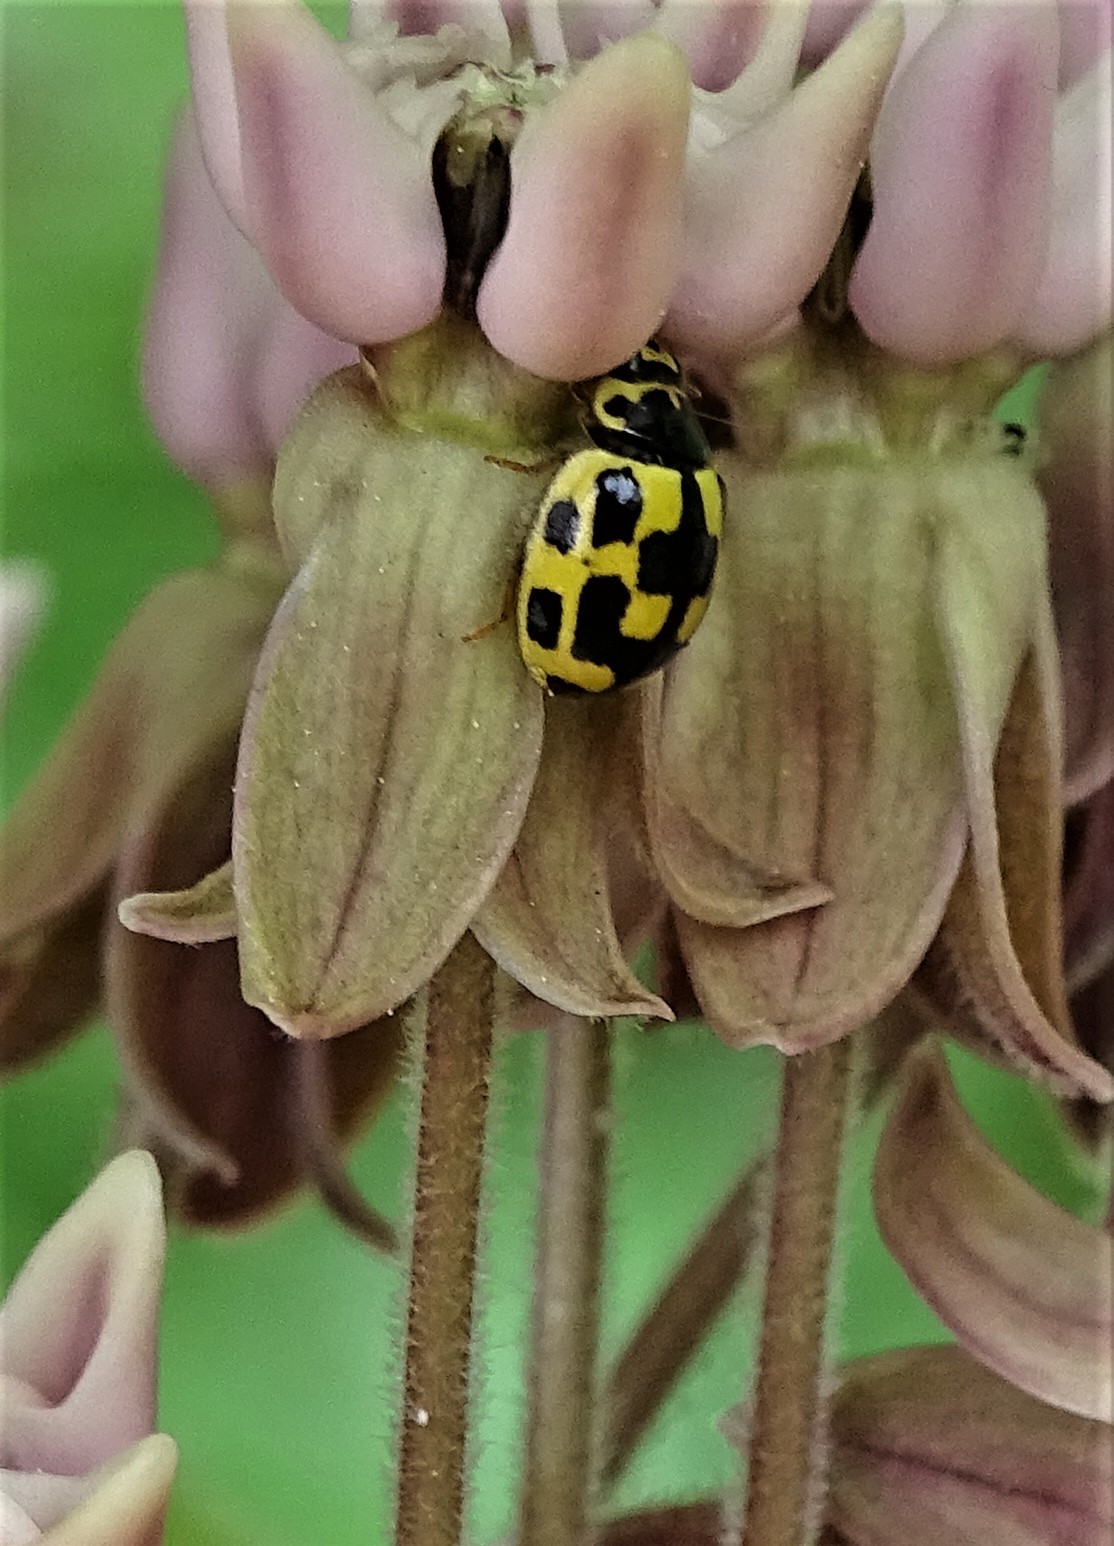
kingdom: Animalia
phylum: Arthropoda
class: Insecta
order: Coleoptera
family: Coccinellidae
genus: Propylaea
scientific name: Propylaea quatuordecimpunctata
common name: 14-spotted ladybird beetle
